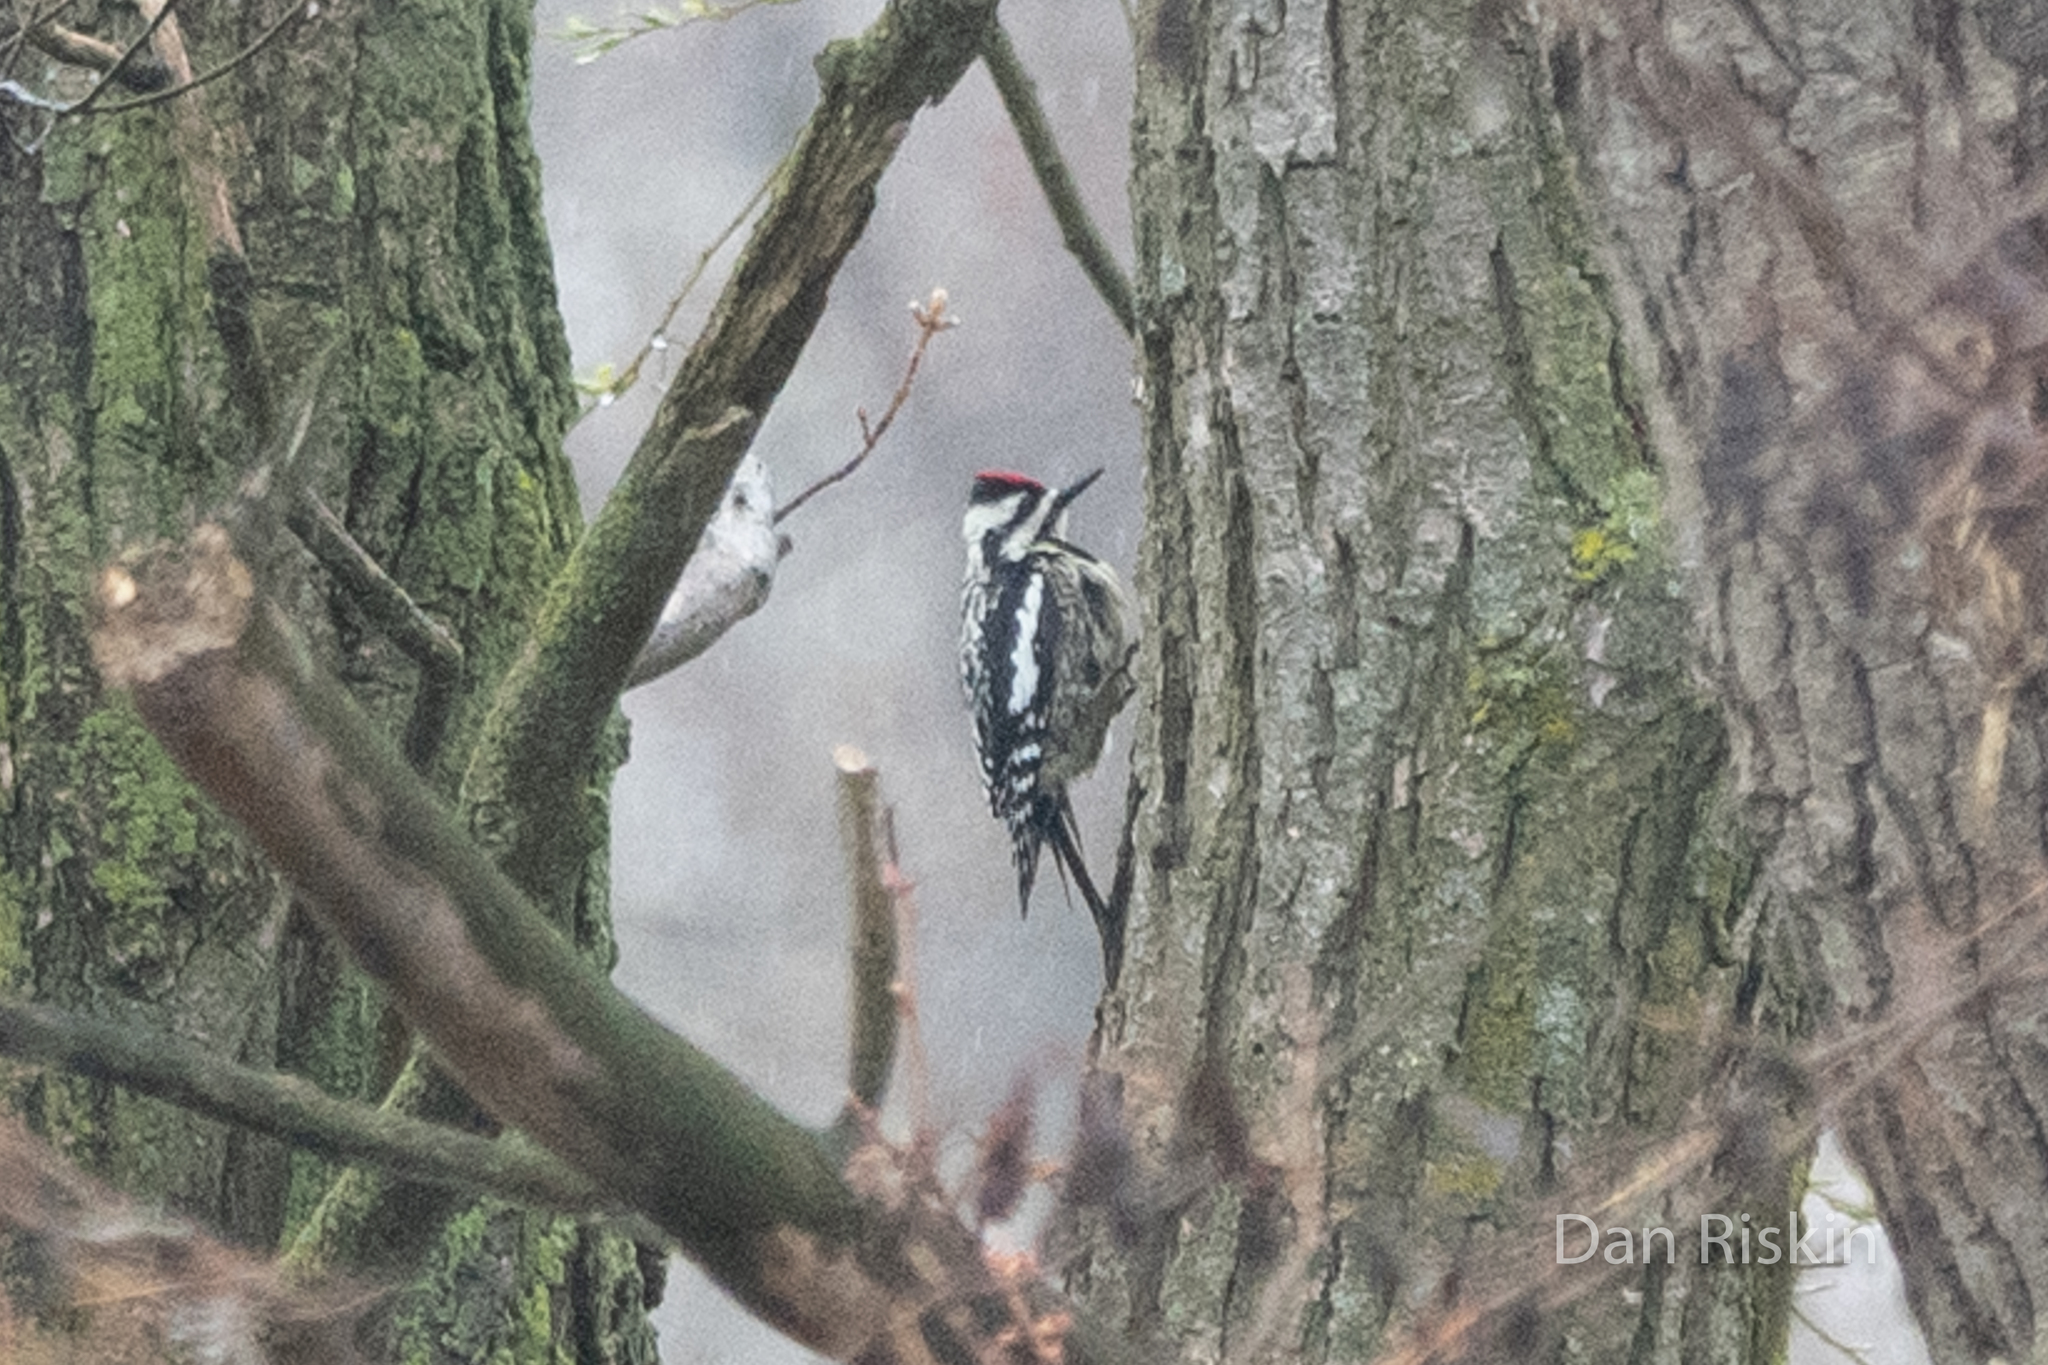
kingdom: Animalia
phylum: Chordata
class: Aves
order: Piciformes
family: Picidae
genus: Sphyrapicus
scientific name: Sphyrapicus varius
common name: Yellow-bellied sapsucker
